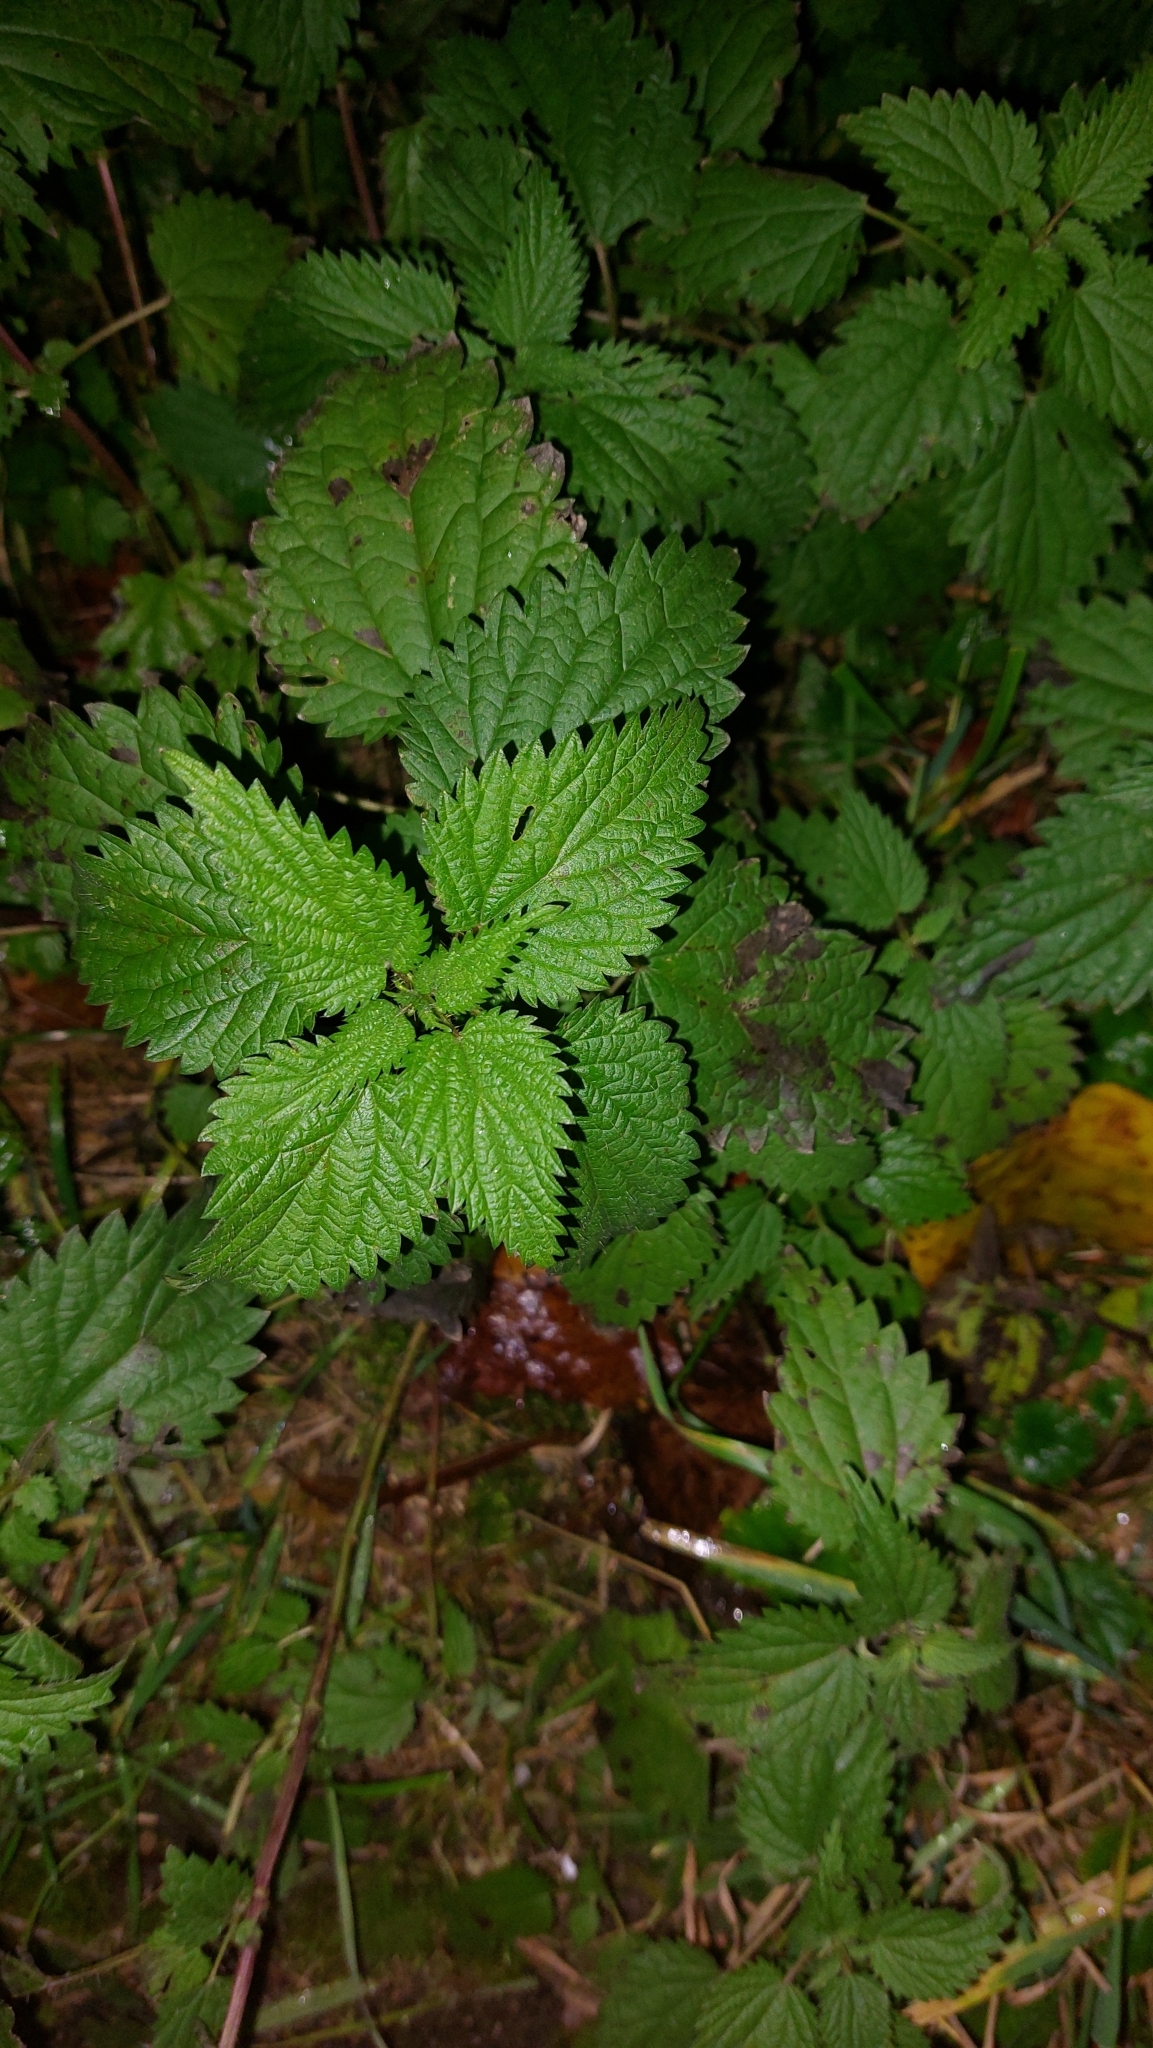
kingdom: Plantae
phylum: Tracheophyta
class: Magnoliopsida
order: Rosales
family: Urticaceae
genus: Urtica
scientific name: Urtica dioica
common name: Common nettle
